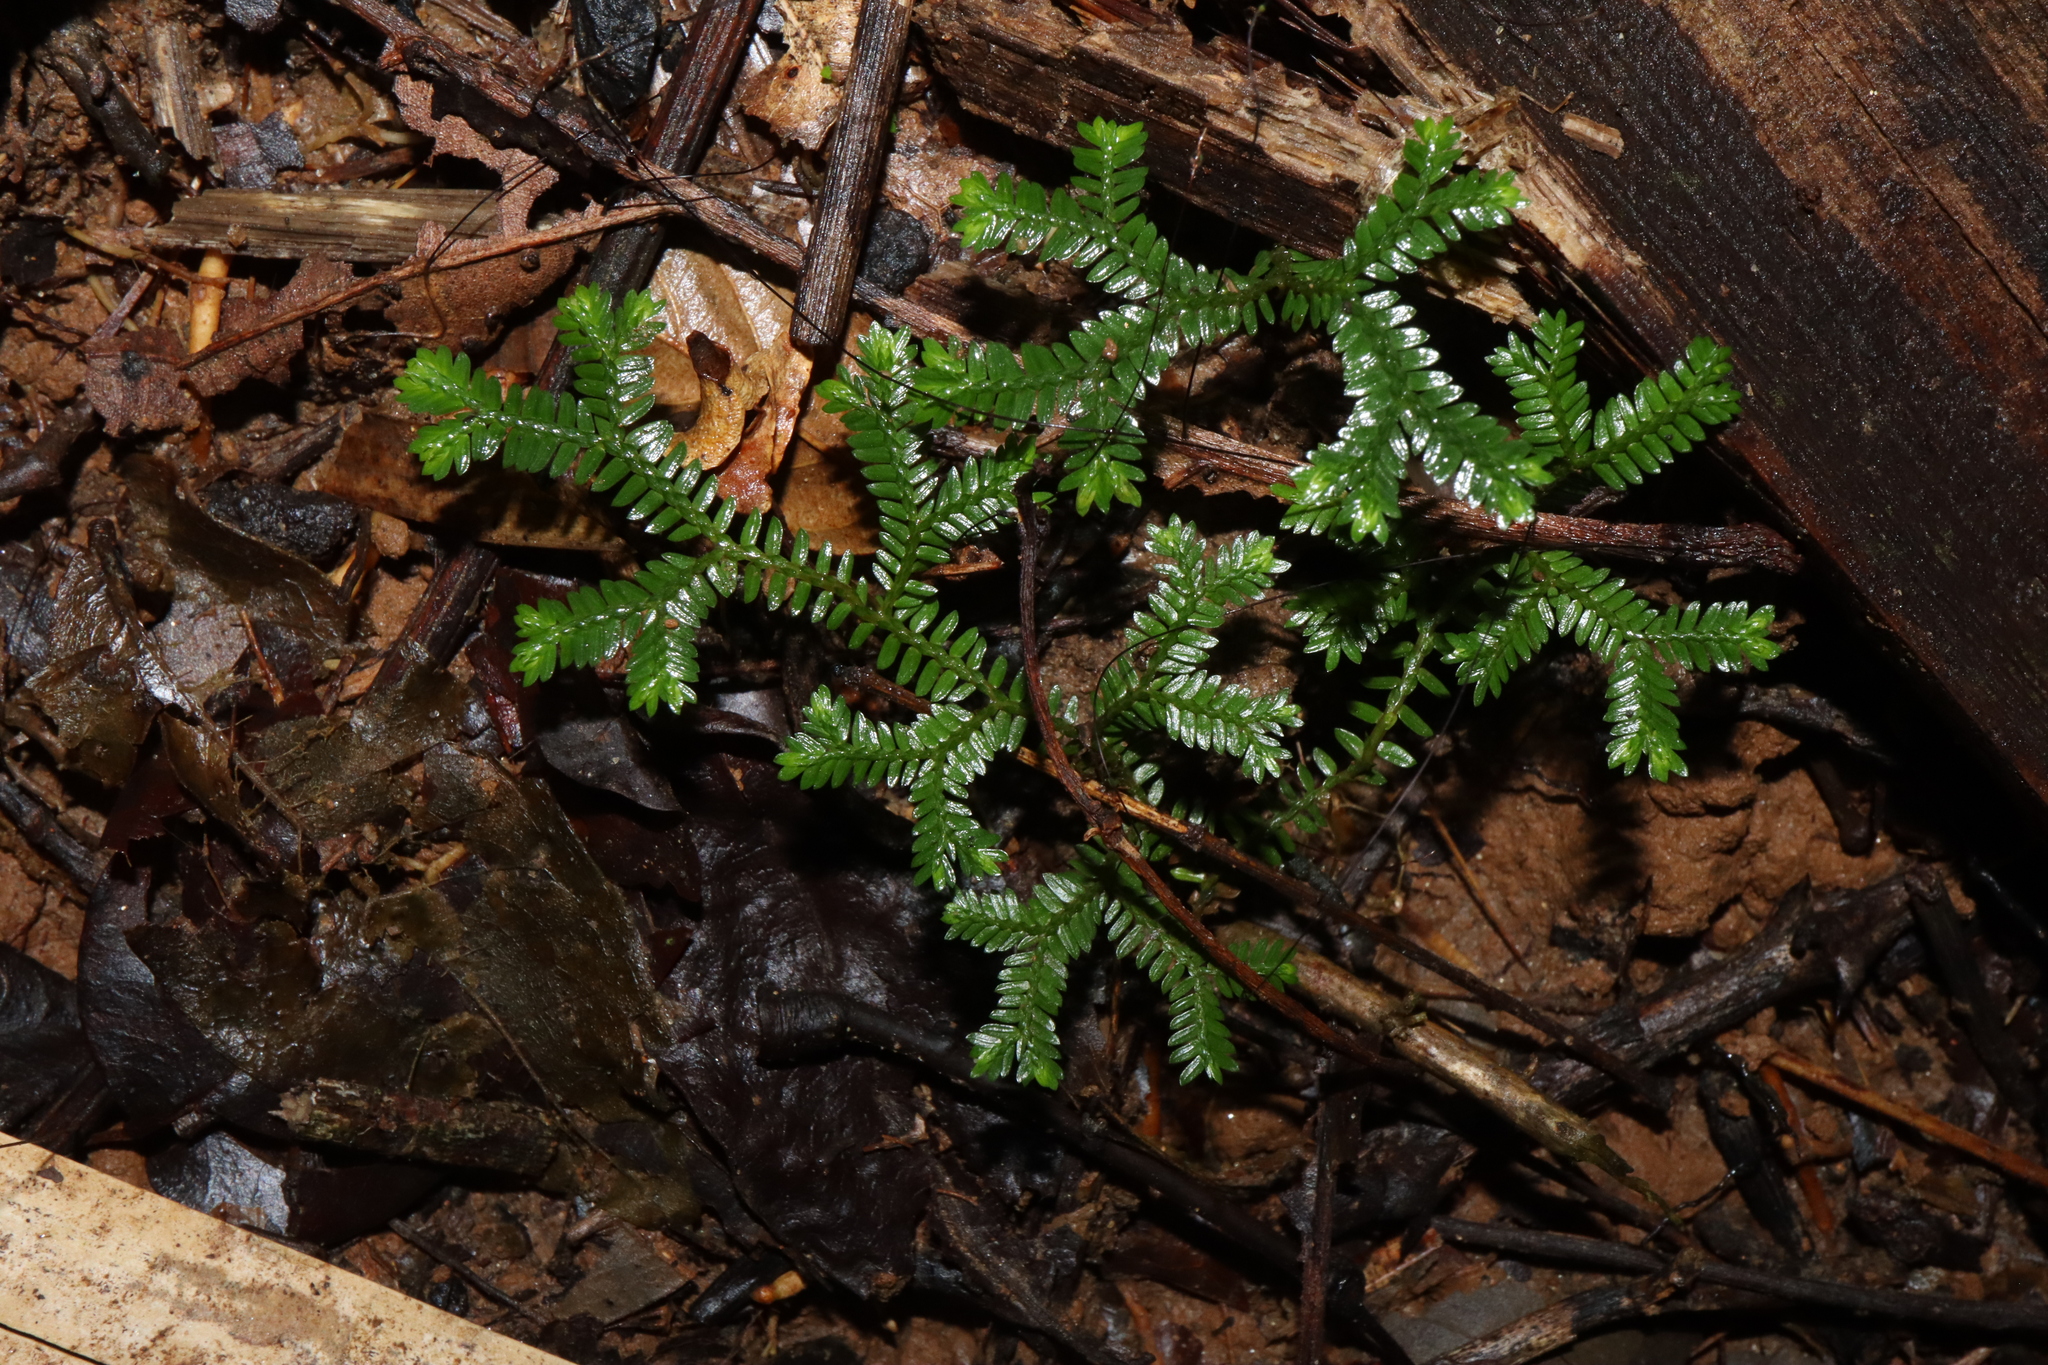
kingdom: Plantae
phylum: Tracheophyta
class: Lycopodiopsida
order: Selaginellales
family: Selaginellaceae
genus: Selaginella
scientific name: Selaginella australiensis
